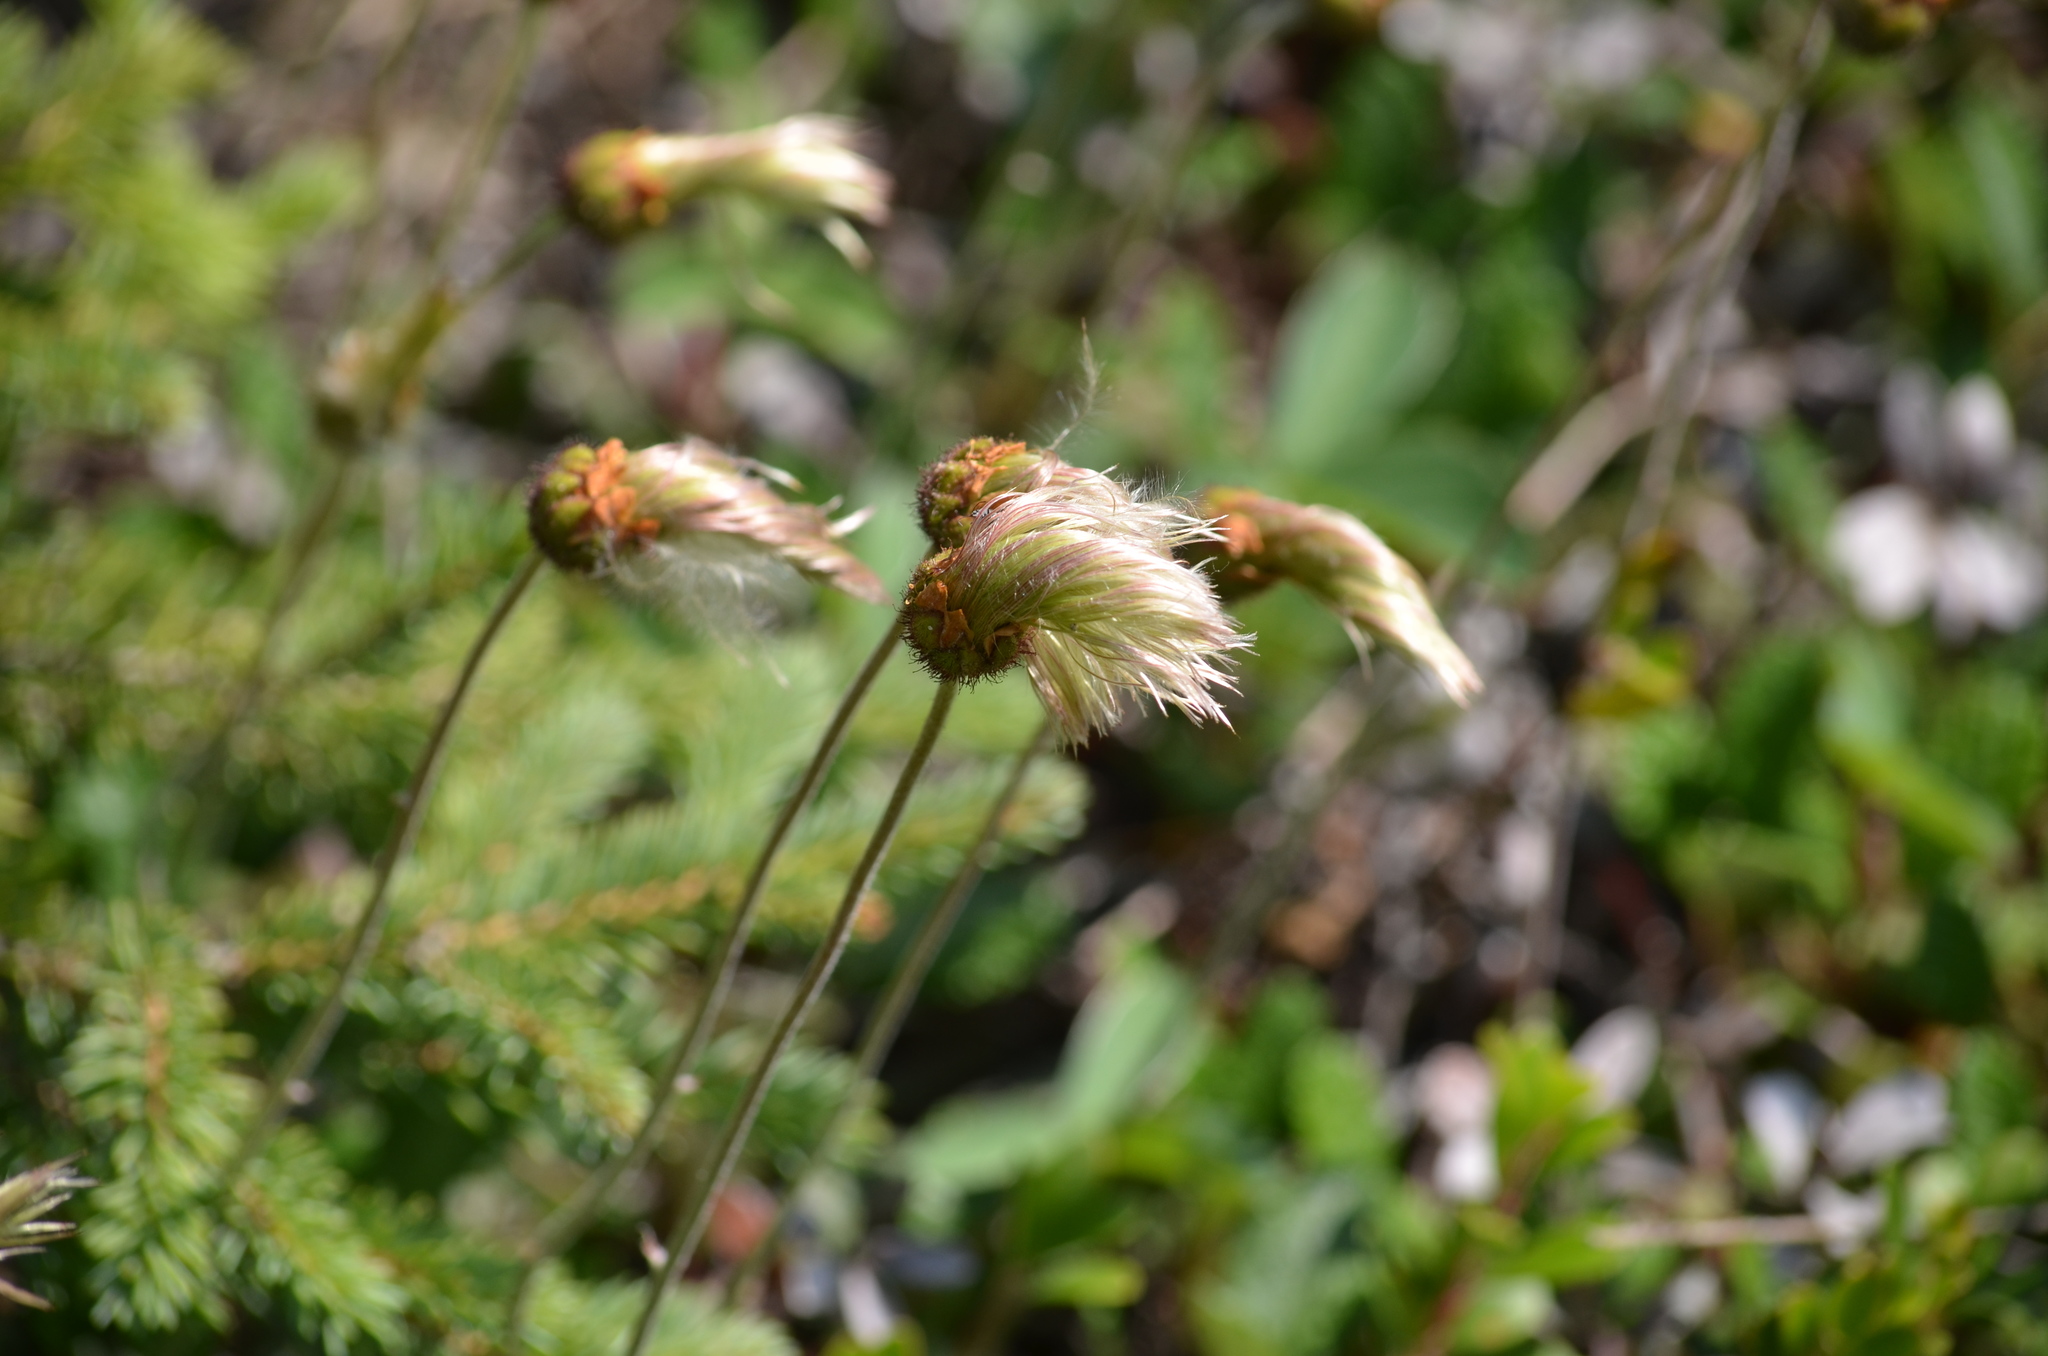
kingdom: Plantae
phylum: Tracheophyta
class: Magnoliopsida
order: Rosales
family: Rosaceae
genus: Dryas
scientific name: Dryas drummondii
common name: Drummond's dryad
